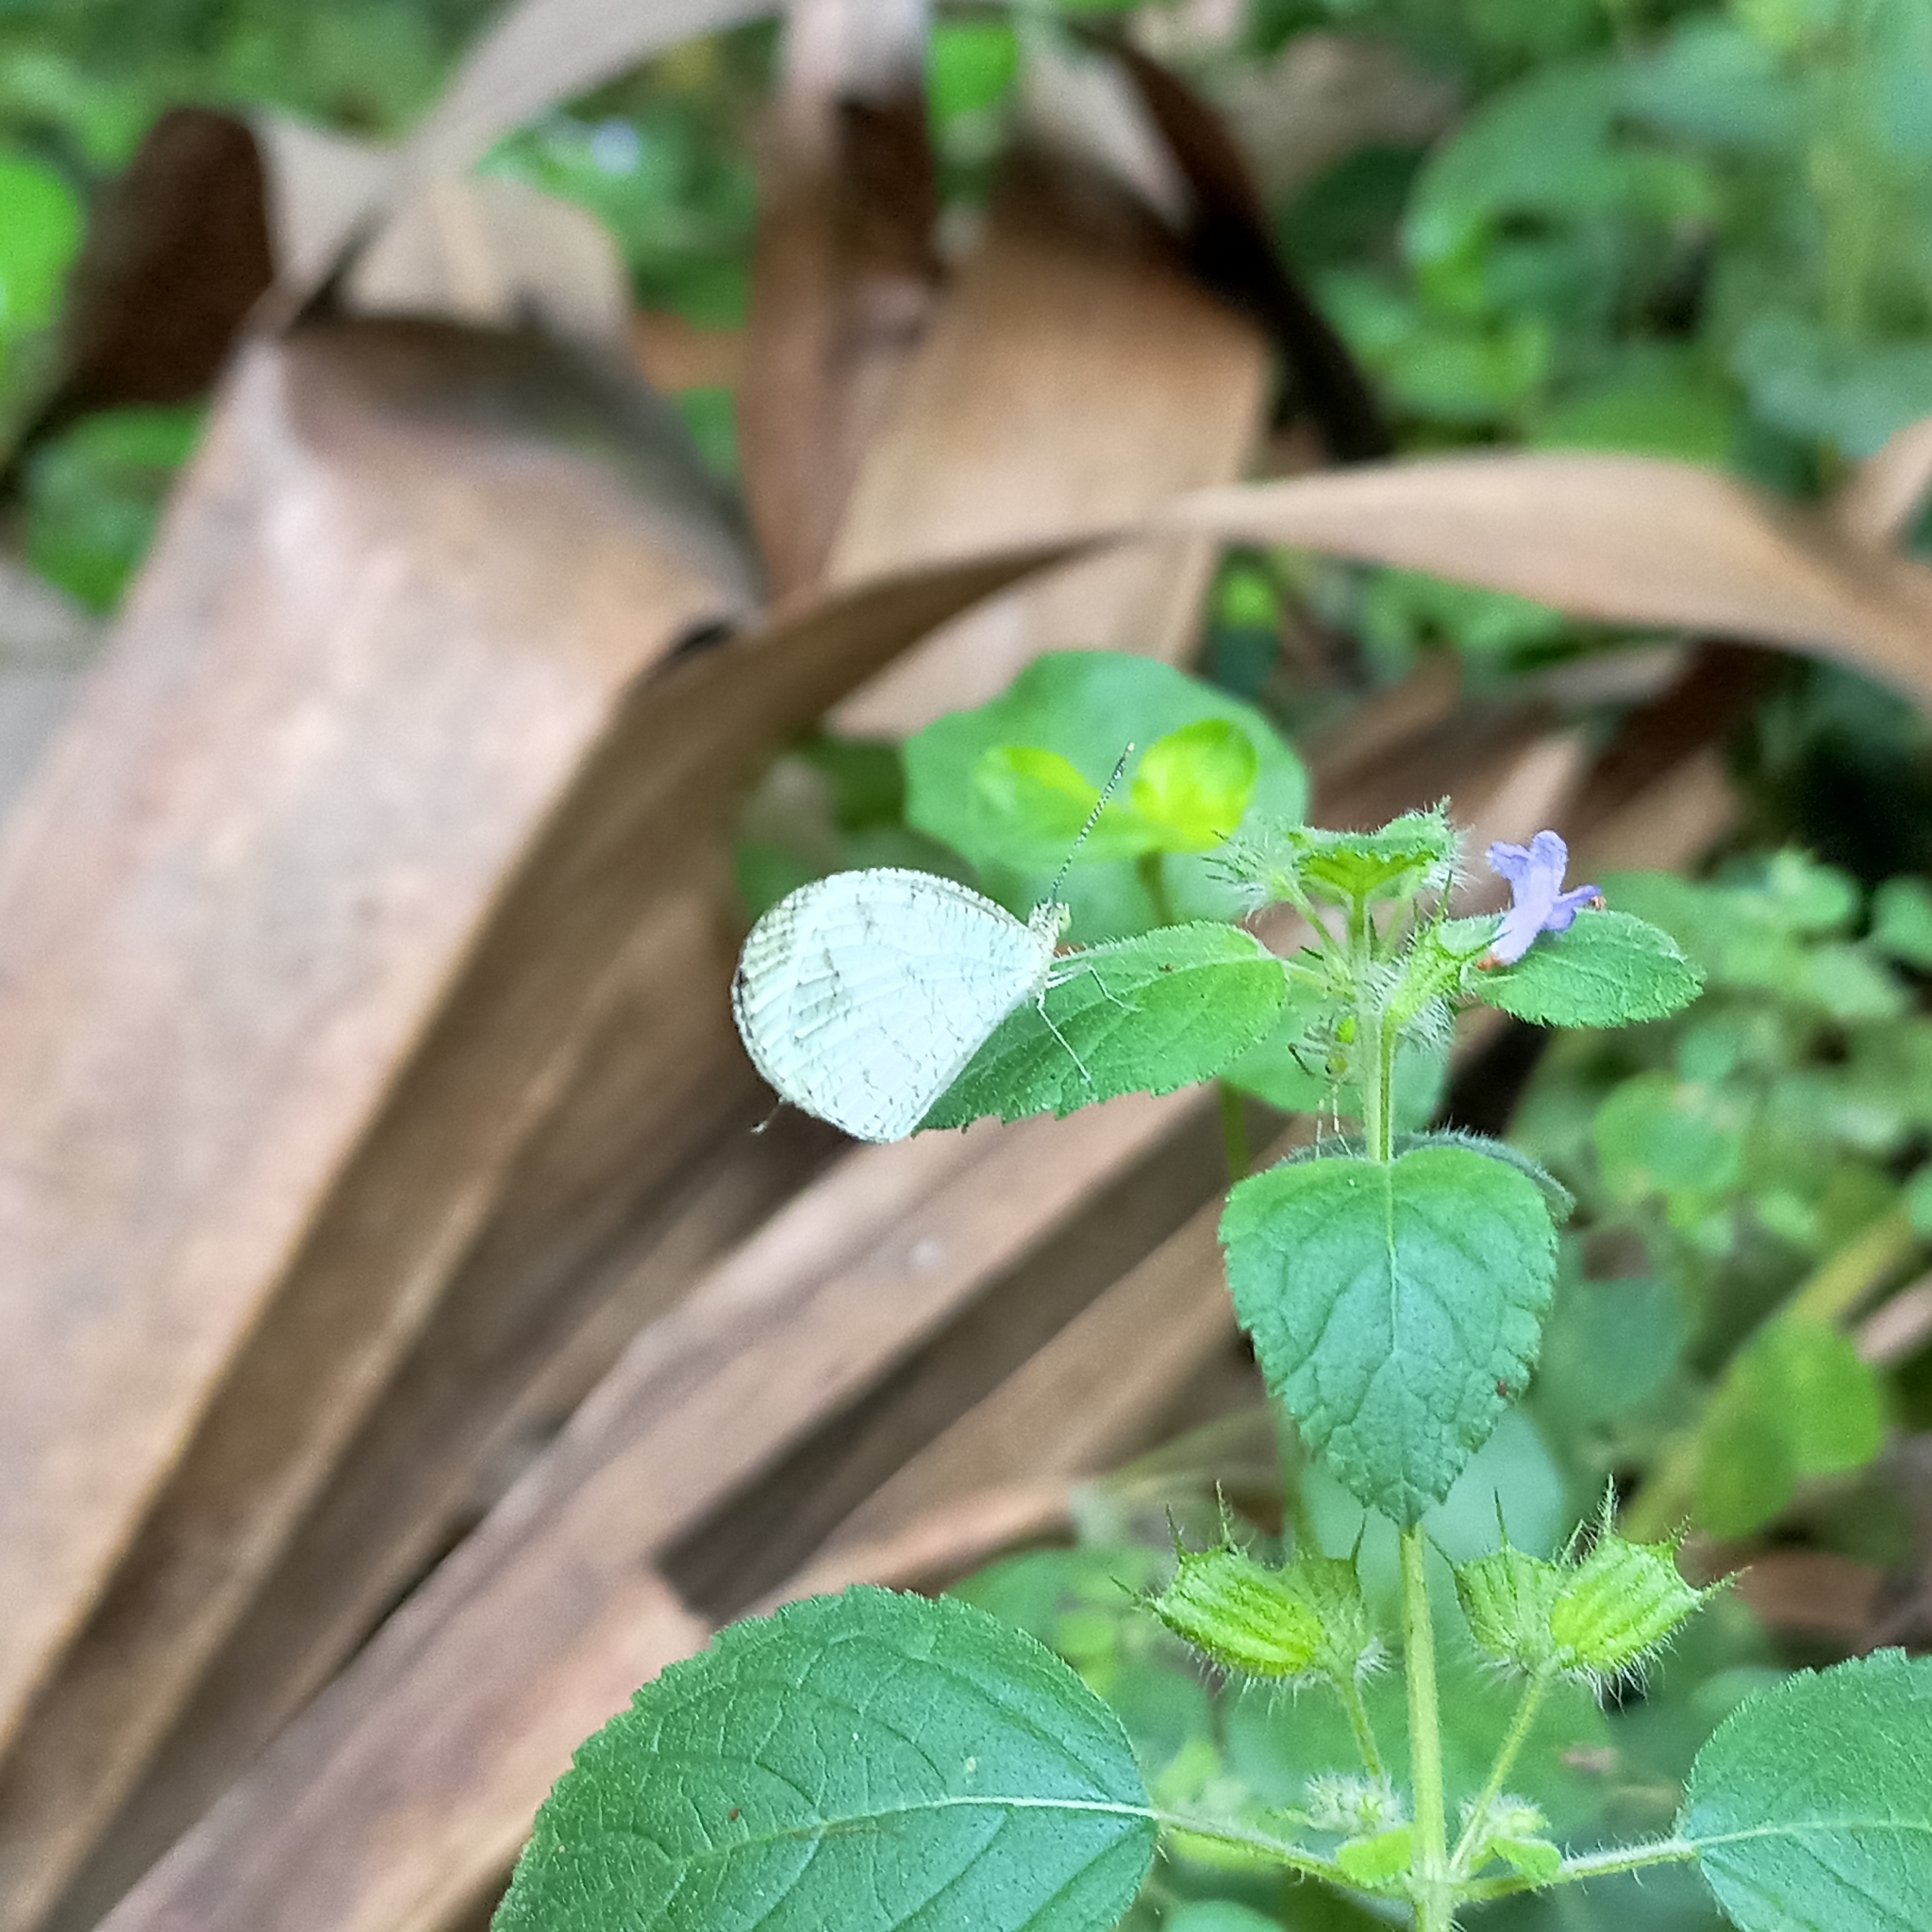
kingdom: Animalia
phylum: Arthropoda
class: Insecta
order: Lepidoptera
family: Pieridae
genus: Leptosia
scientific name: Leptosia nina
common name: Psyche
